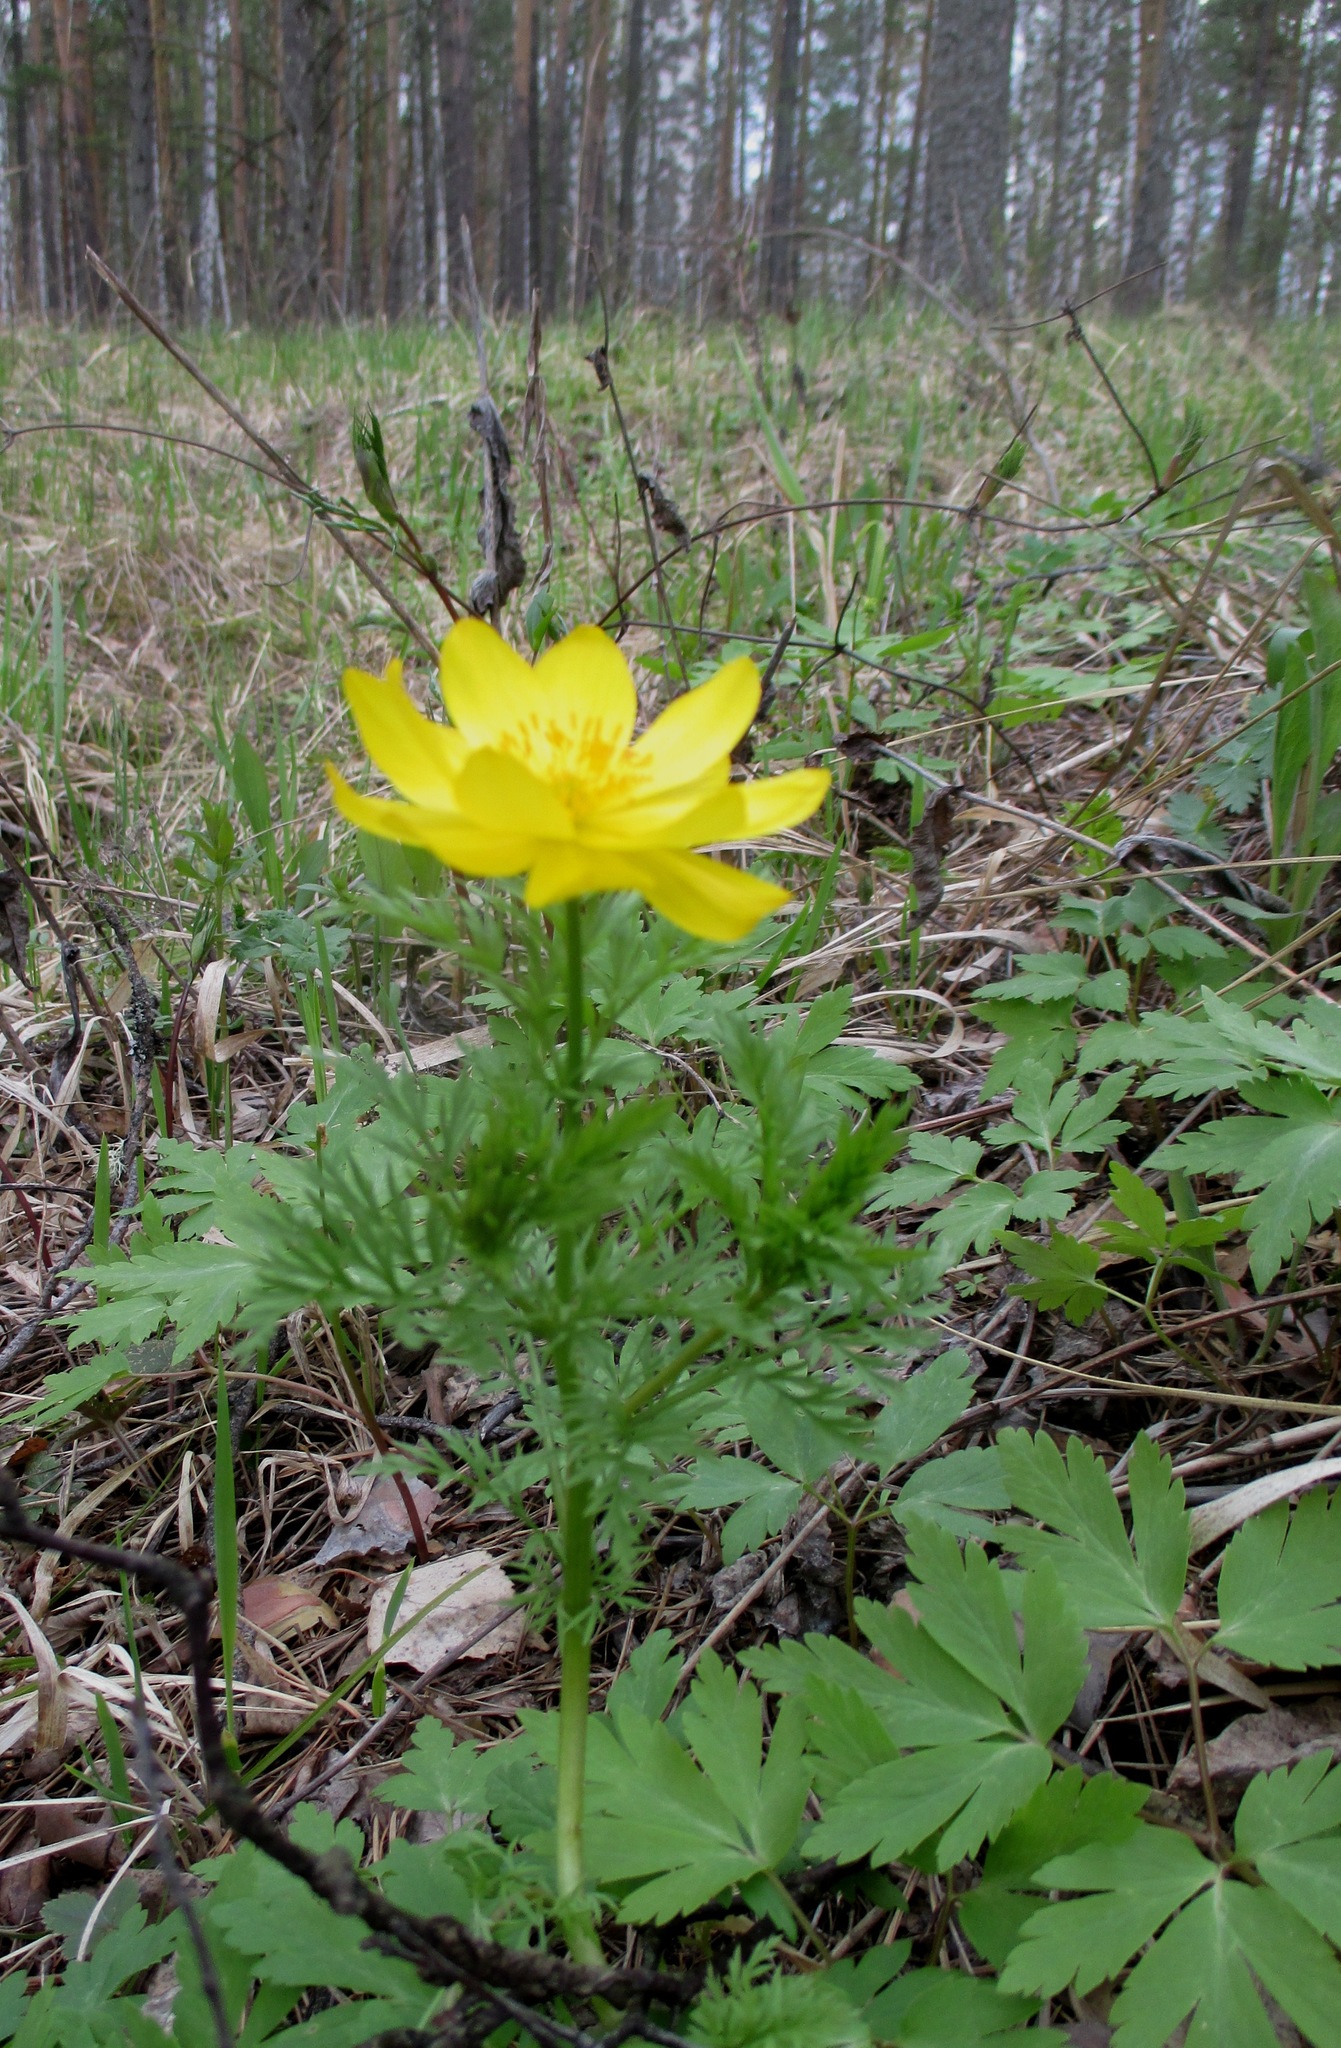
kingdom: Plantae
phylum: Tracheophyta
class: Magnoliopsida
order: Ranunculales
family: Ranunculaceae
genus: Adonis
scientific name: Adonis
